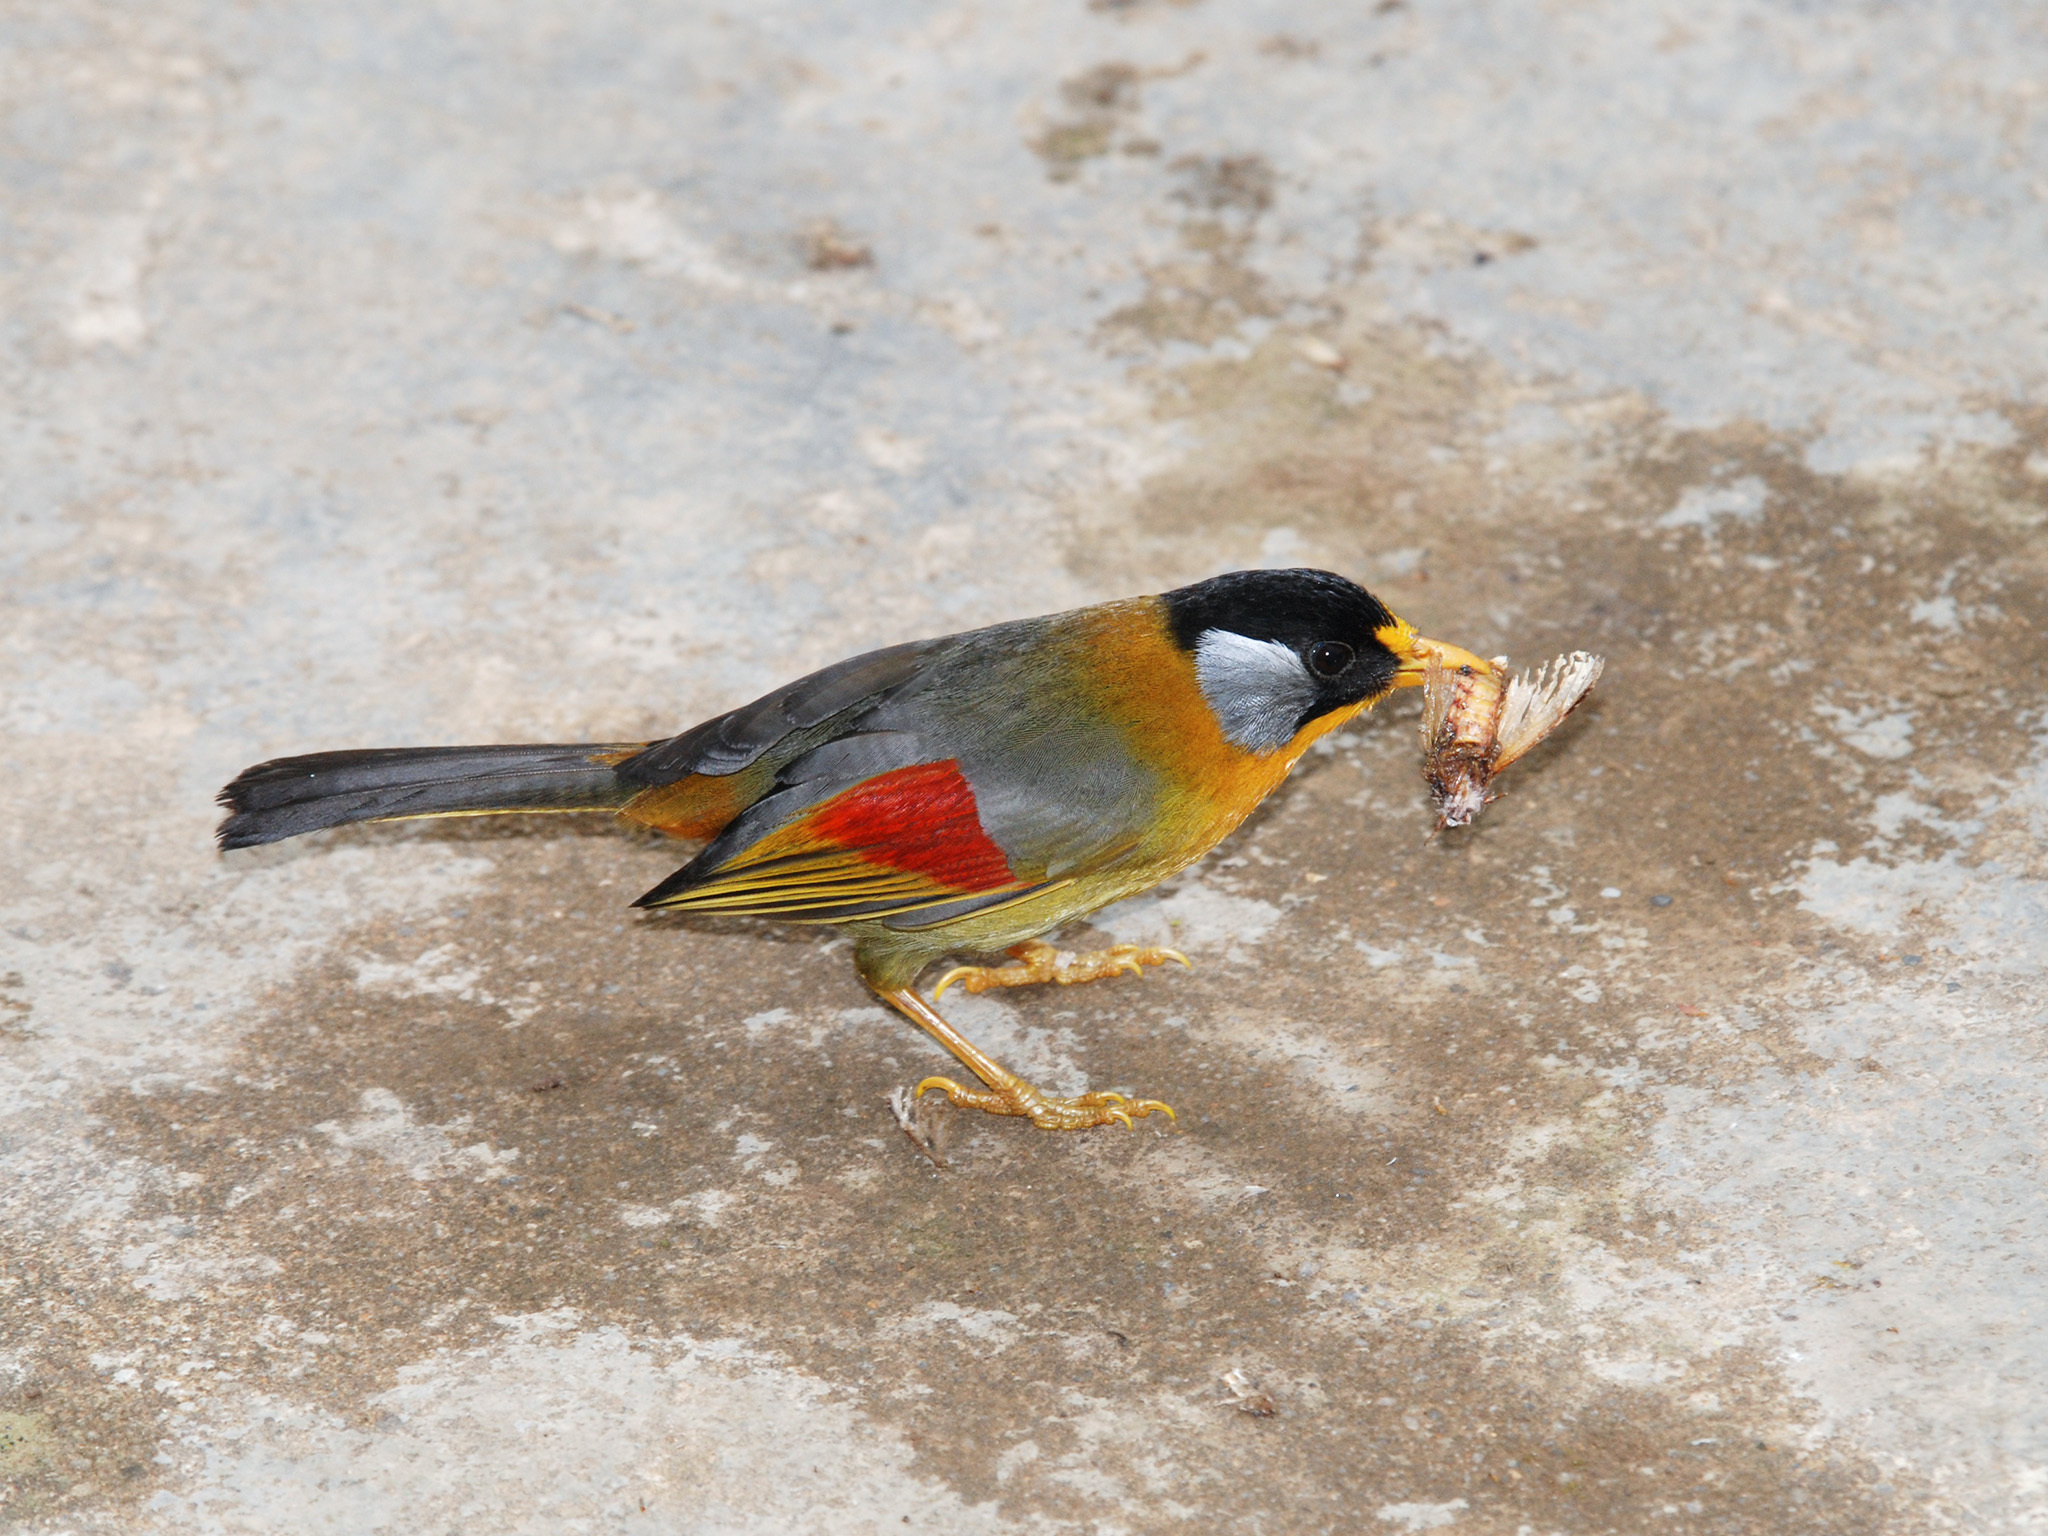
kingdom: Animalia
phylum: Chordata
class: Aves
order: Passeriformes
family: Leiothrichidae
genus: Leiothrix
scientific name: Leiothrix argentauris
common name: Silver-eared mesia
